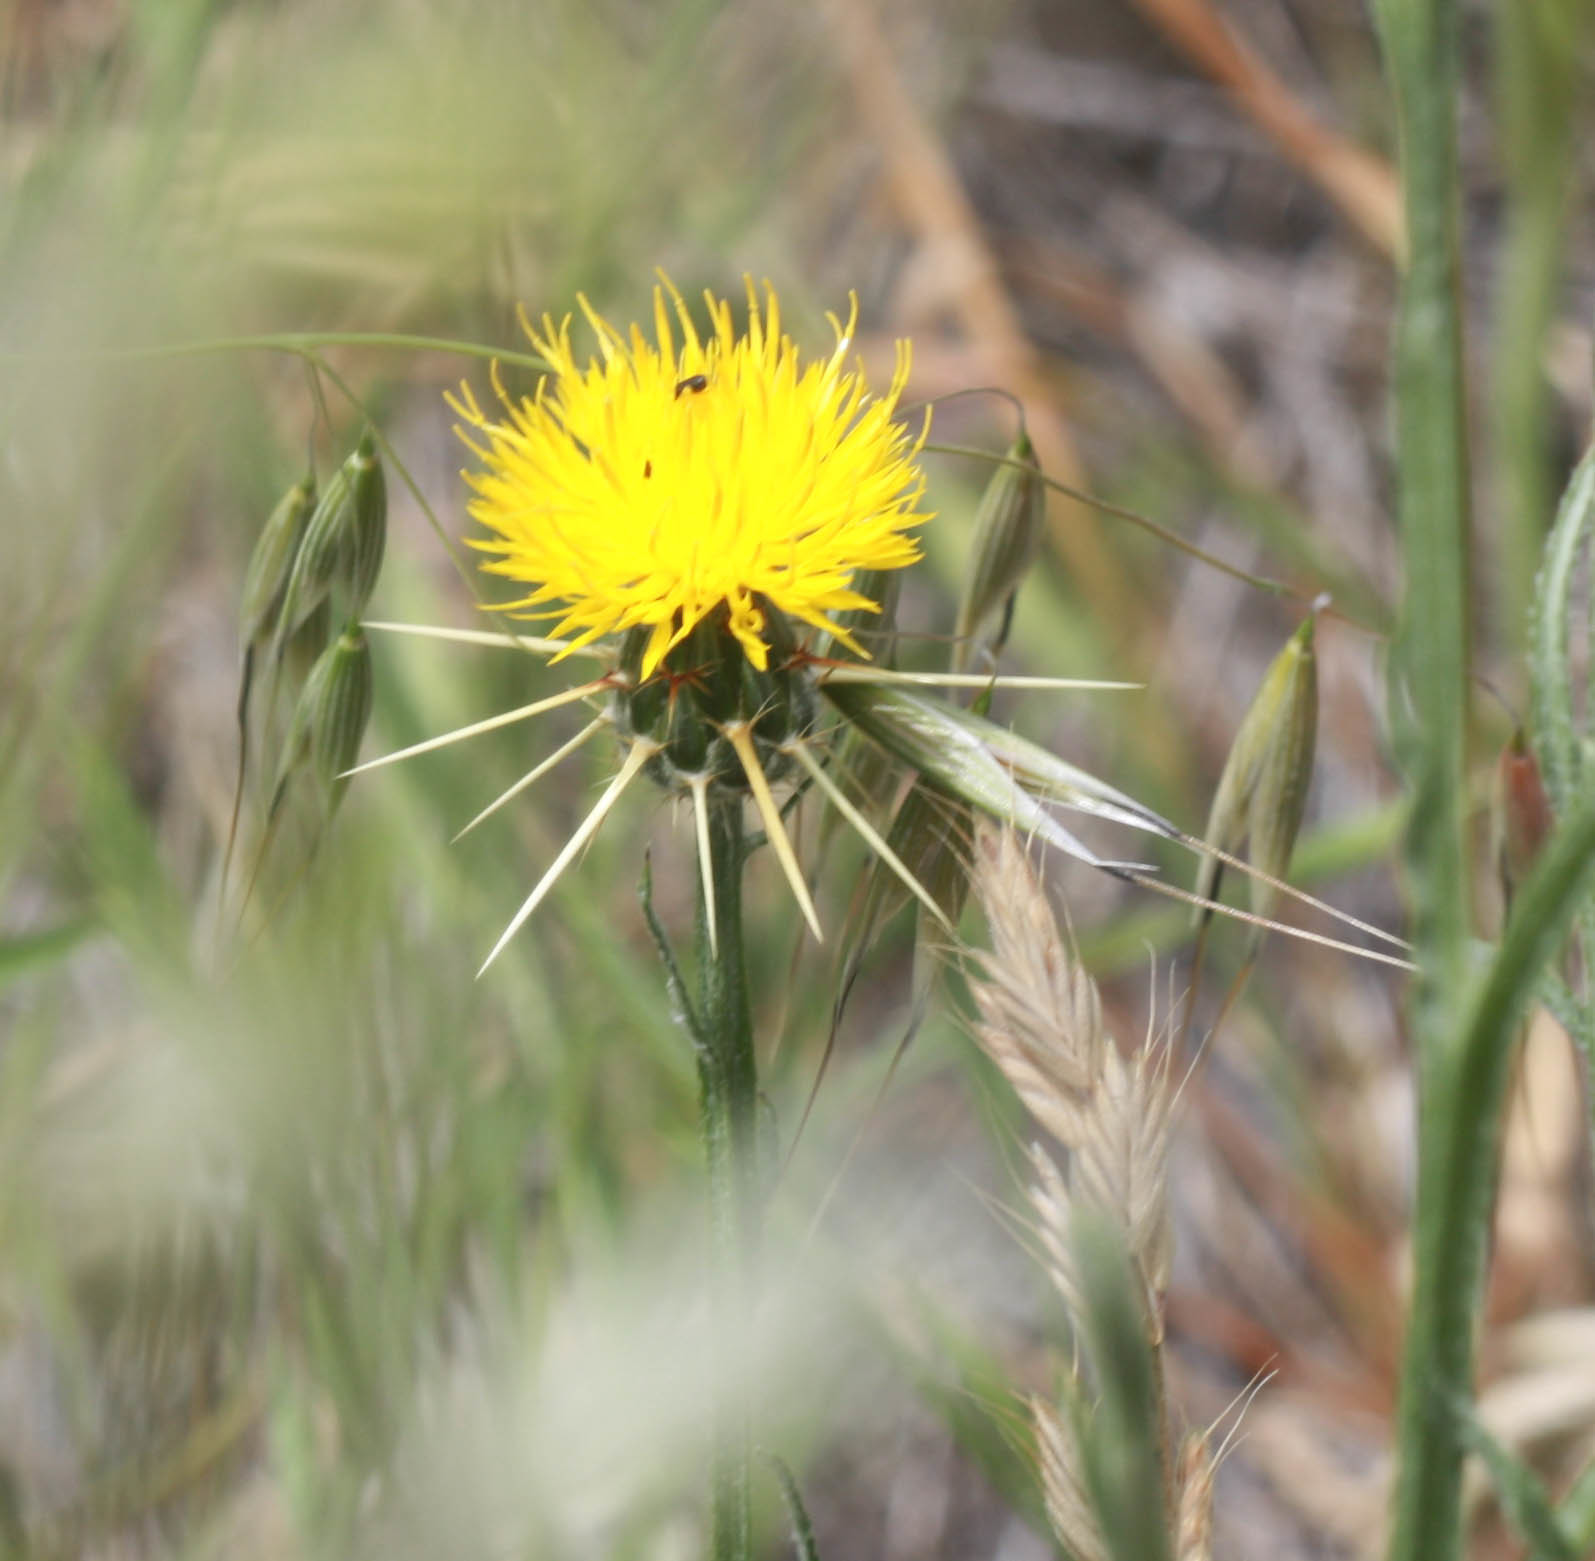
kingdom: Plantae
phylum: Tracheophyta
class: Magnoliopsida
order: Asterales
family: Asteraceae
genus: Centaurea
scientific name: Centaurea solstitialis
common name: Yellow star-thistle
